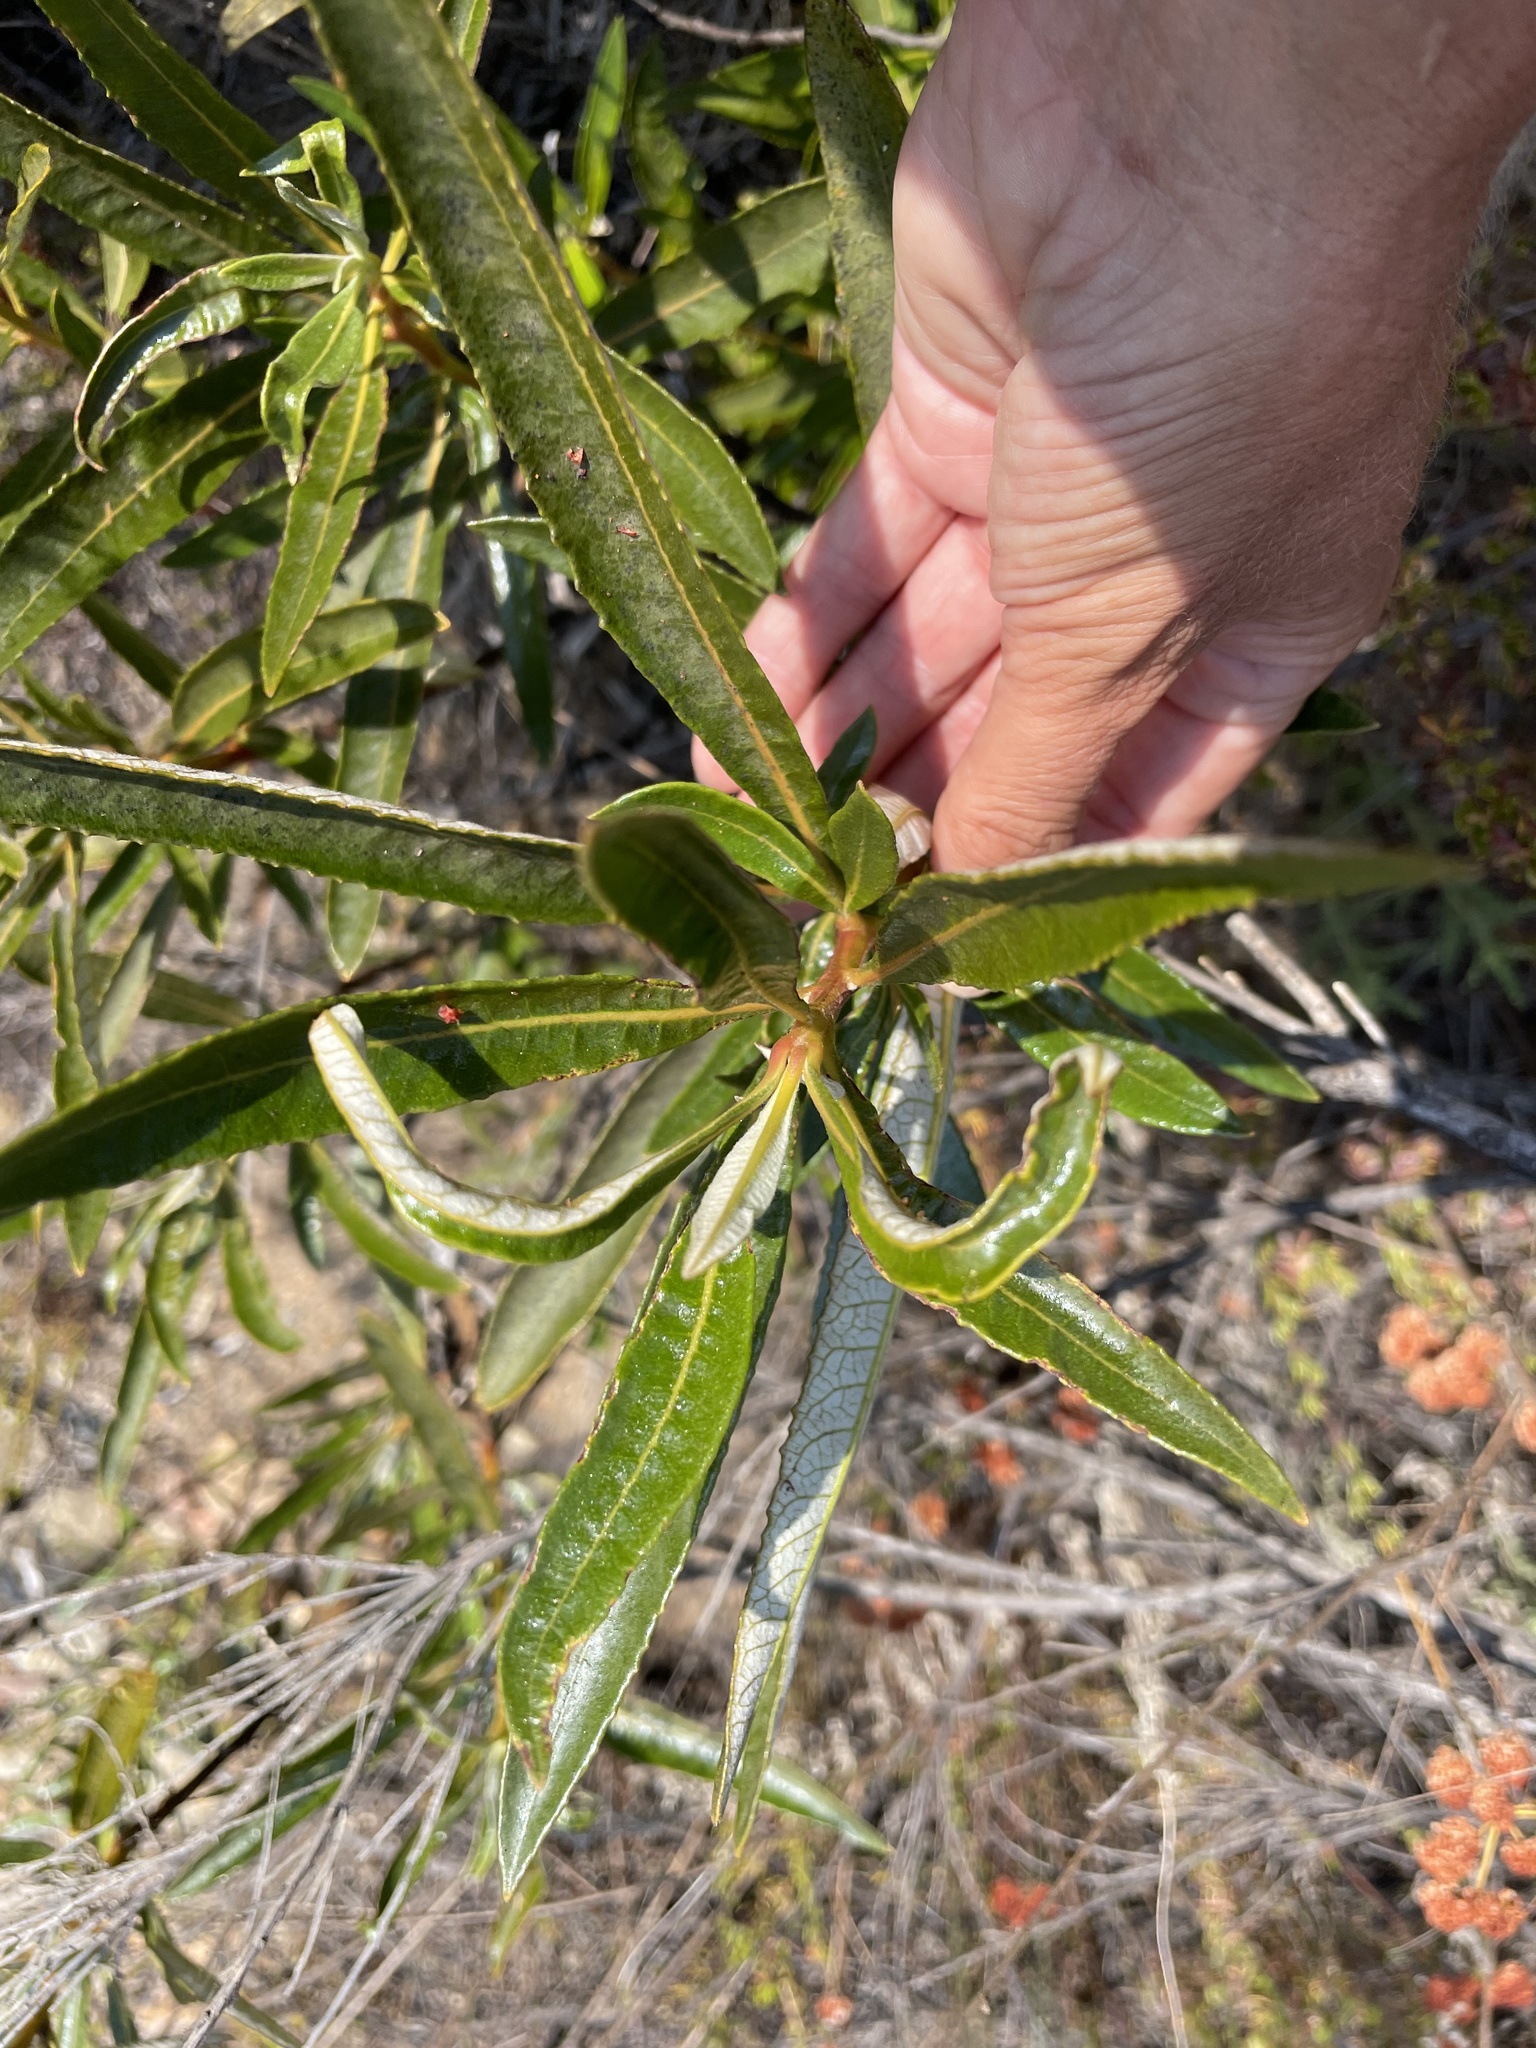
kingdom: Plantae
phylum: Tracheophyta
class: Magnoliopsida
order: Boraginales
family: Namaceae
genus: Eriodictyon
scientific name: Eriodictyon trichocalyx
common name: Hairy yerba-santa
